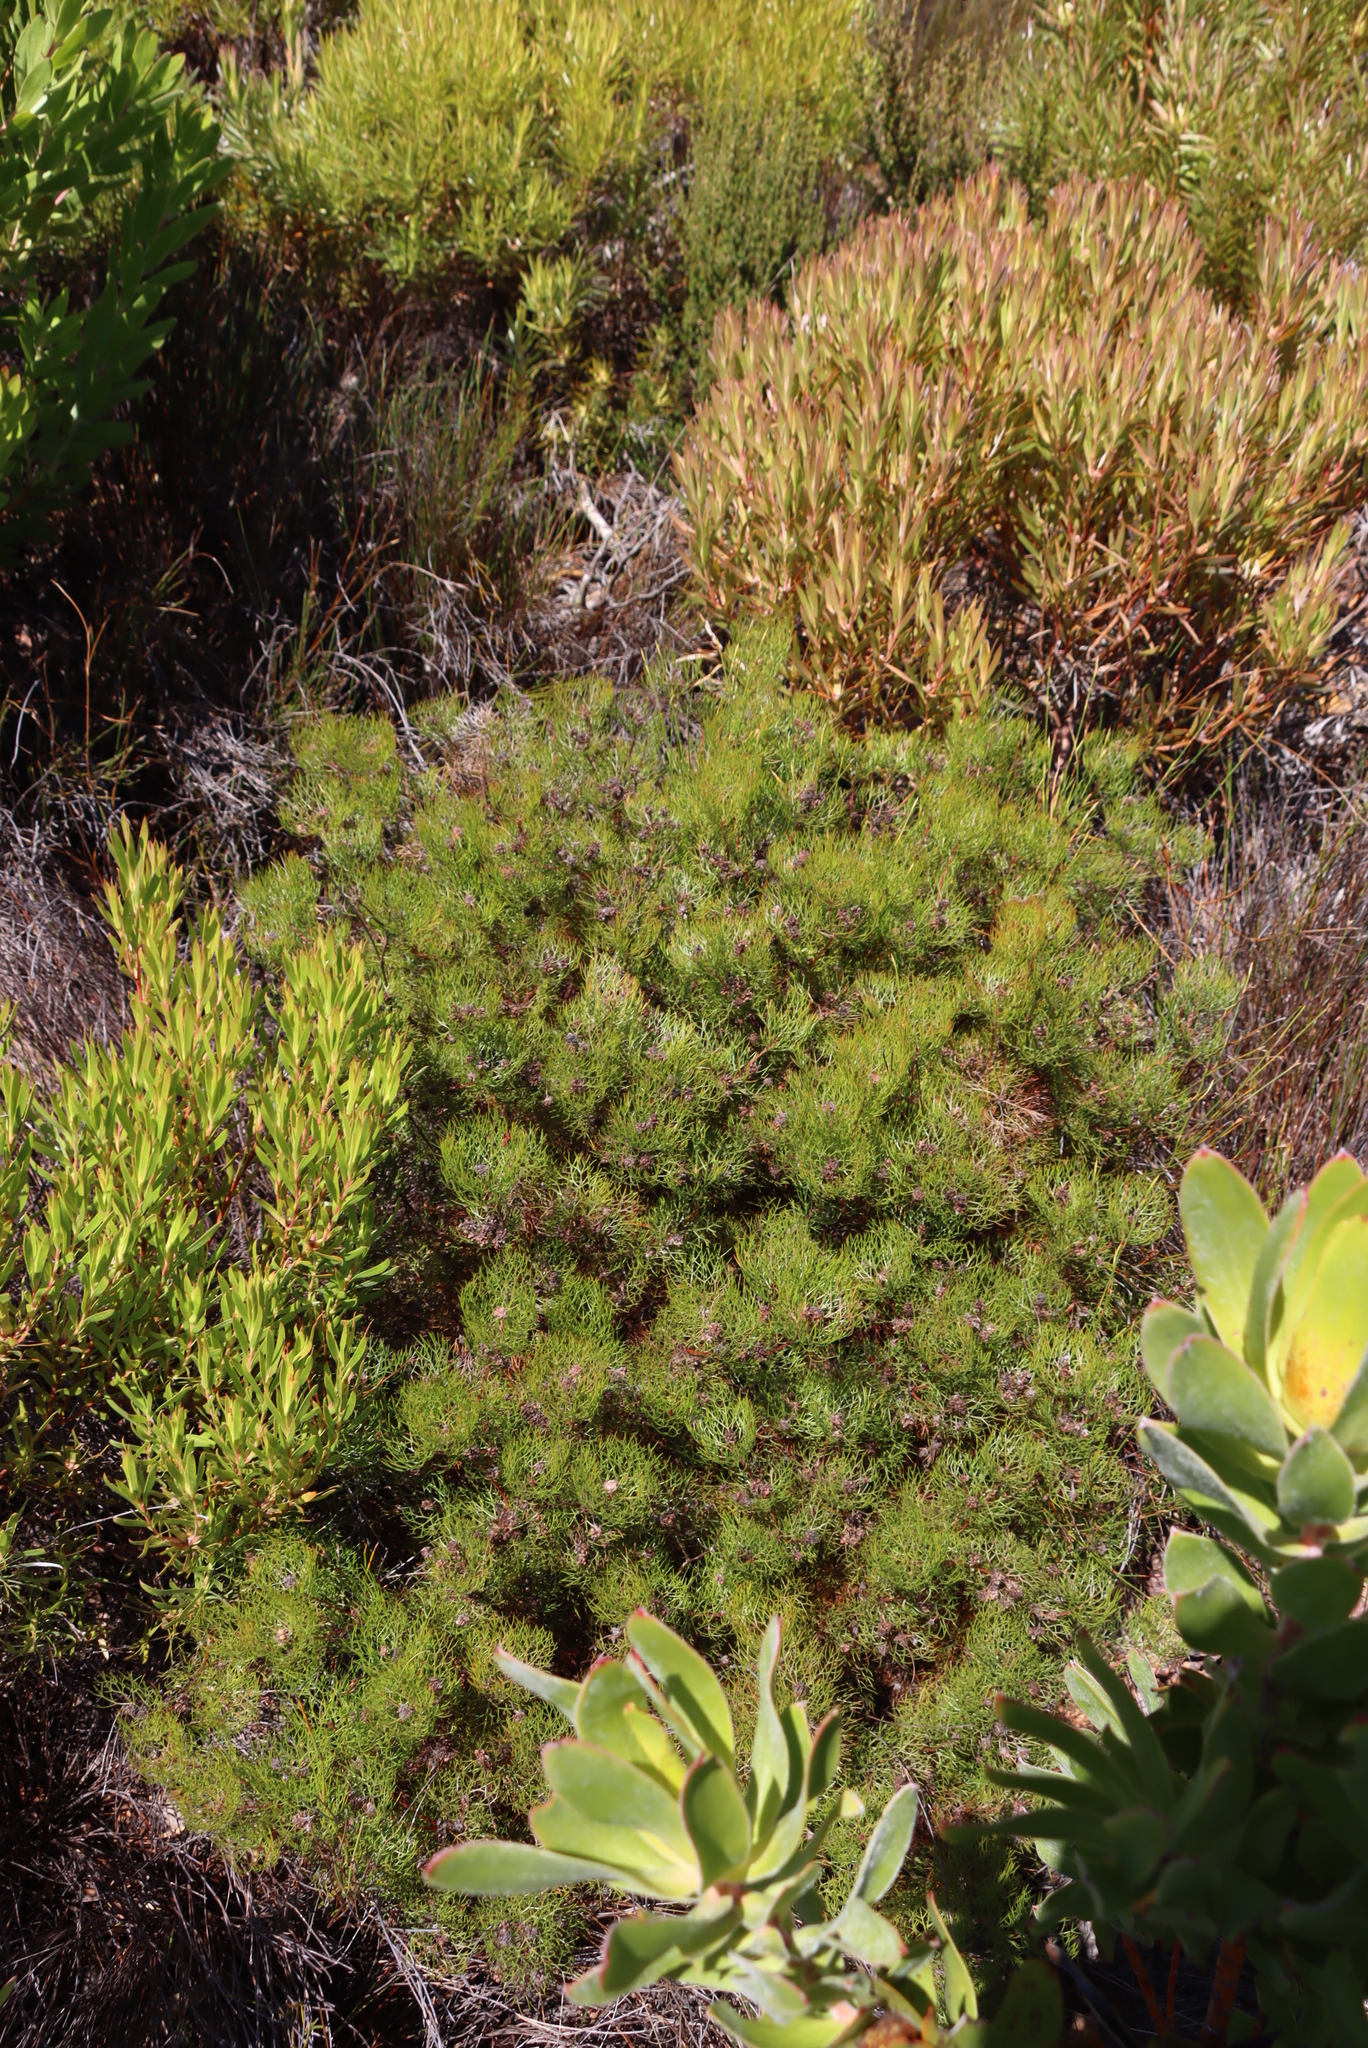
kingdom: Plantae
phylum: Tracheophyta
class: Magnoliopsida
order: Proteales
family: Proteaceae
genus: Serruria
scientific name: Serruria fasciflora
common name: Common pin spiderhead
